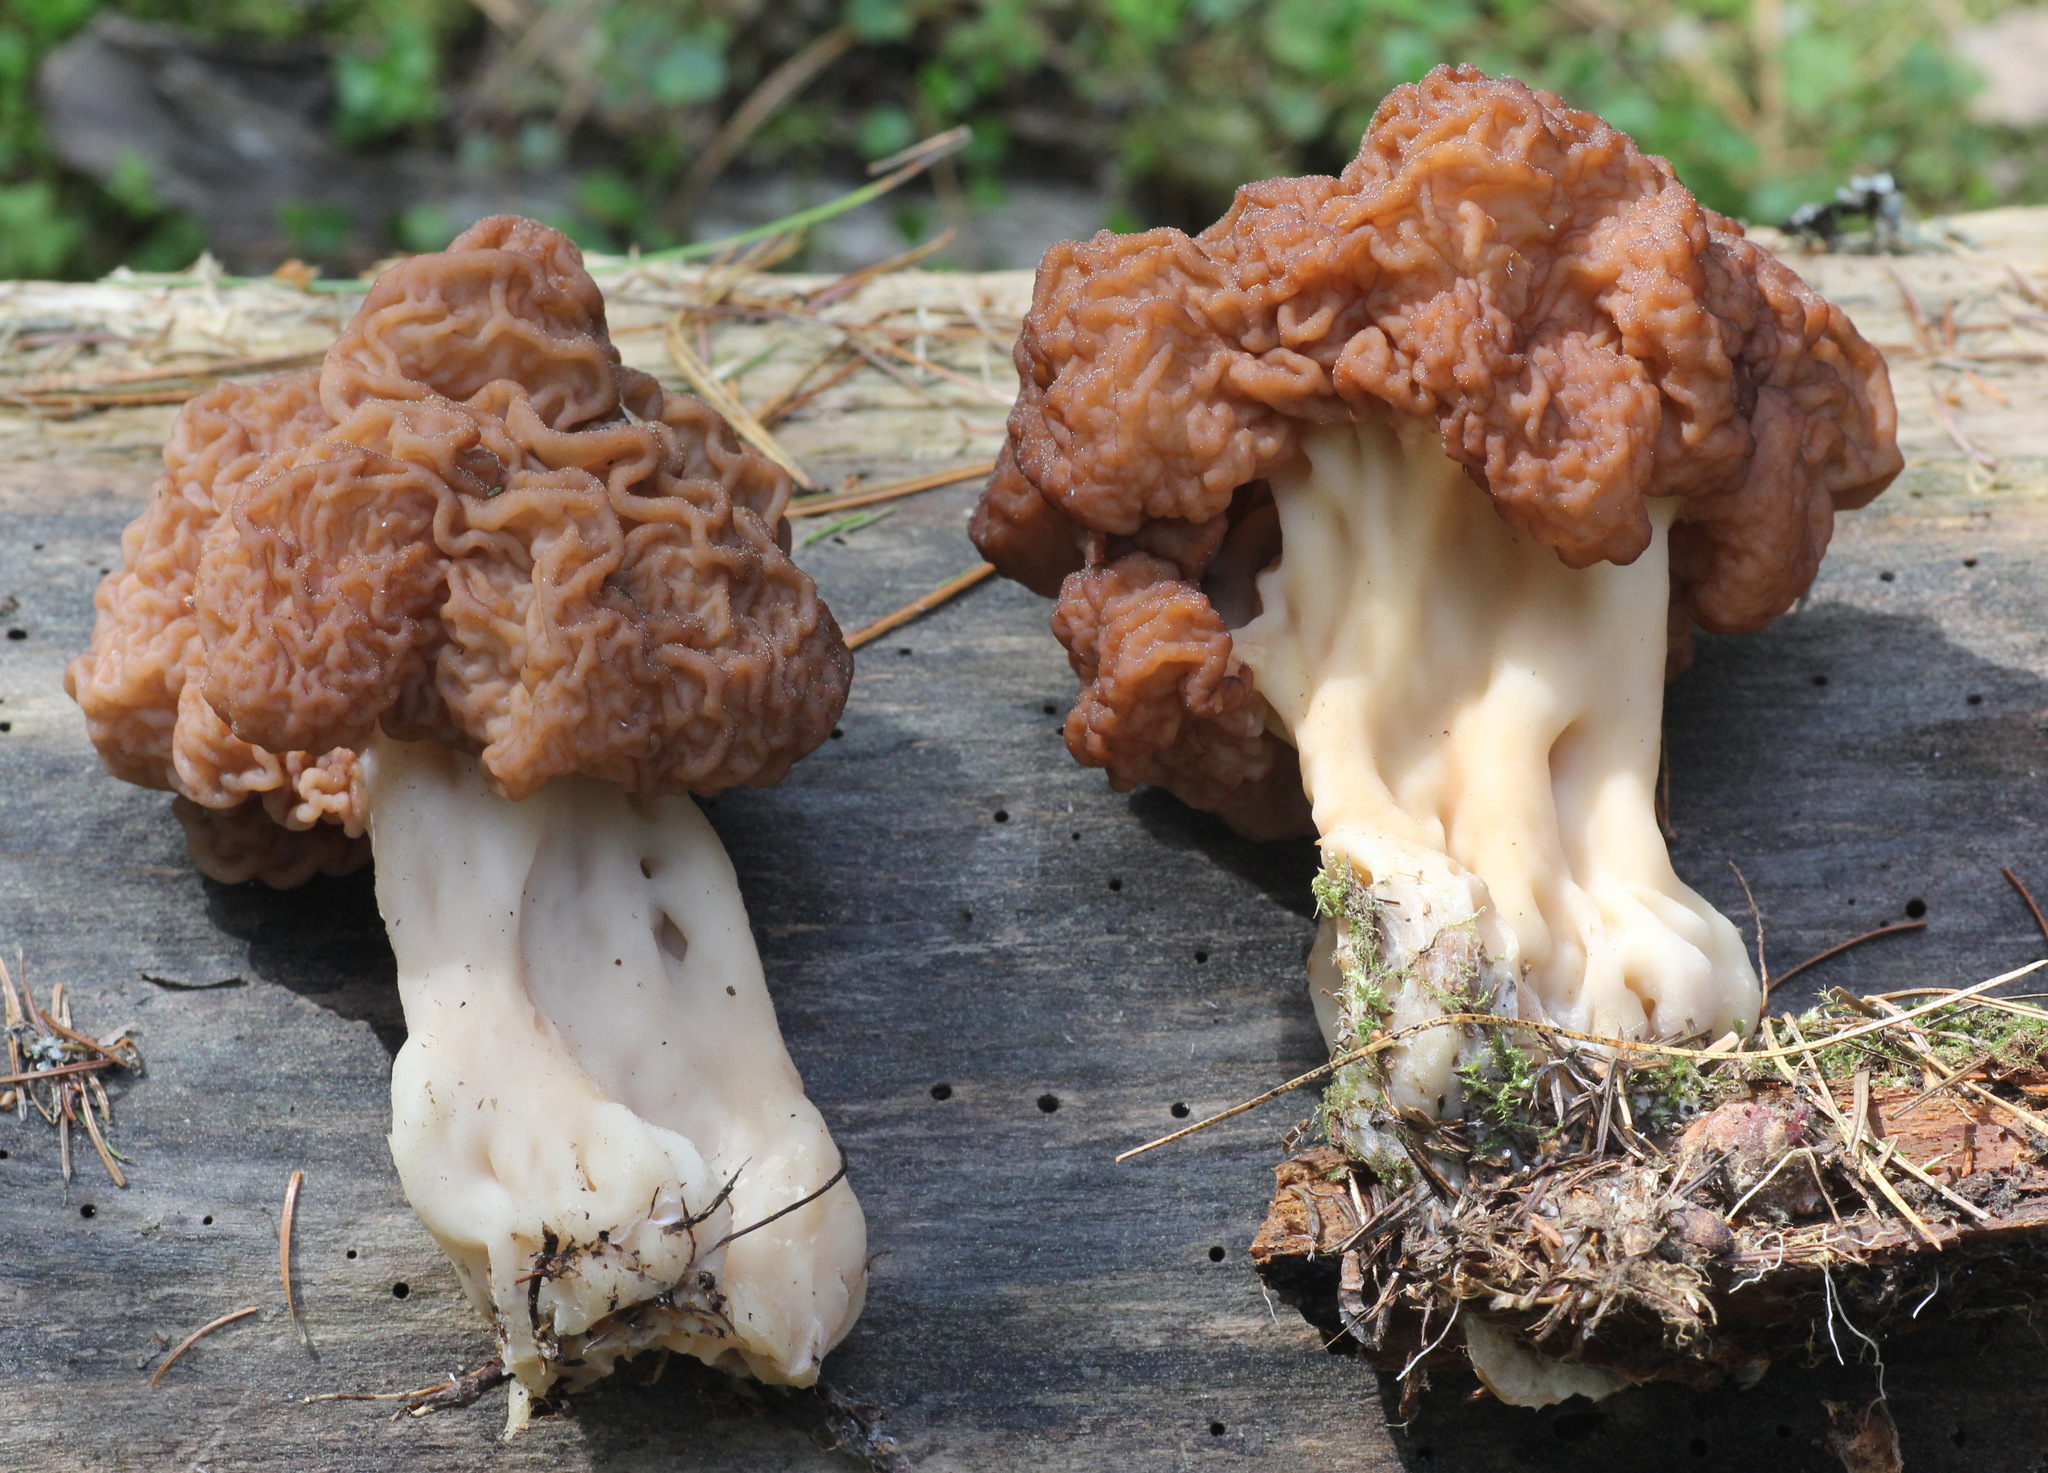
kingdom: Fungi
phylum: Ascomycota
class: Pezizomycetes
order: Pezizales
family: Discinaceae
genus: Gyromitra
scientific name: Gyromitra esculenta
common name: False morel
